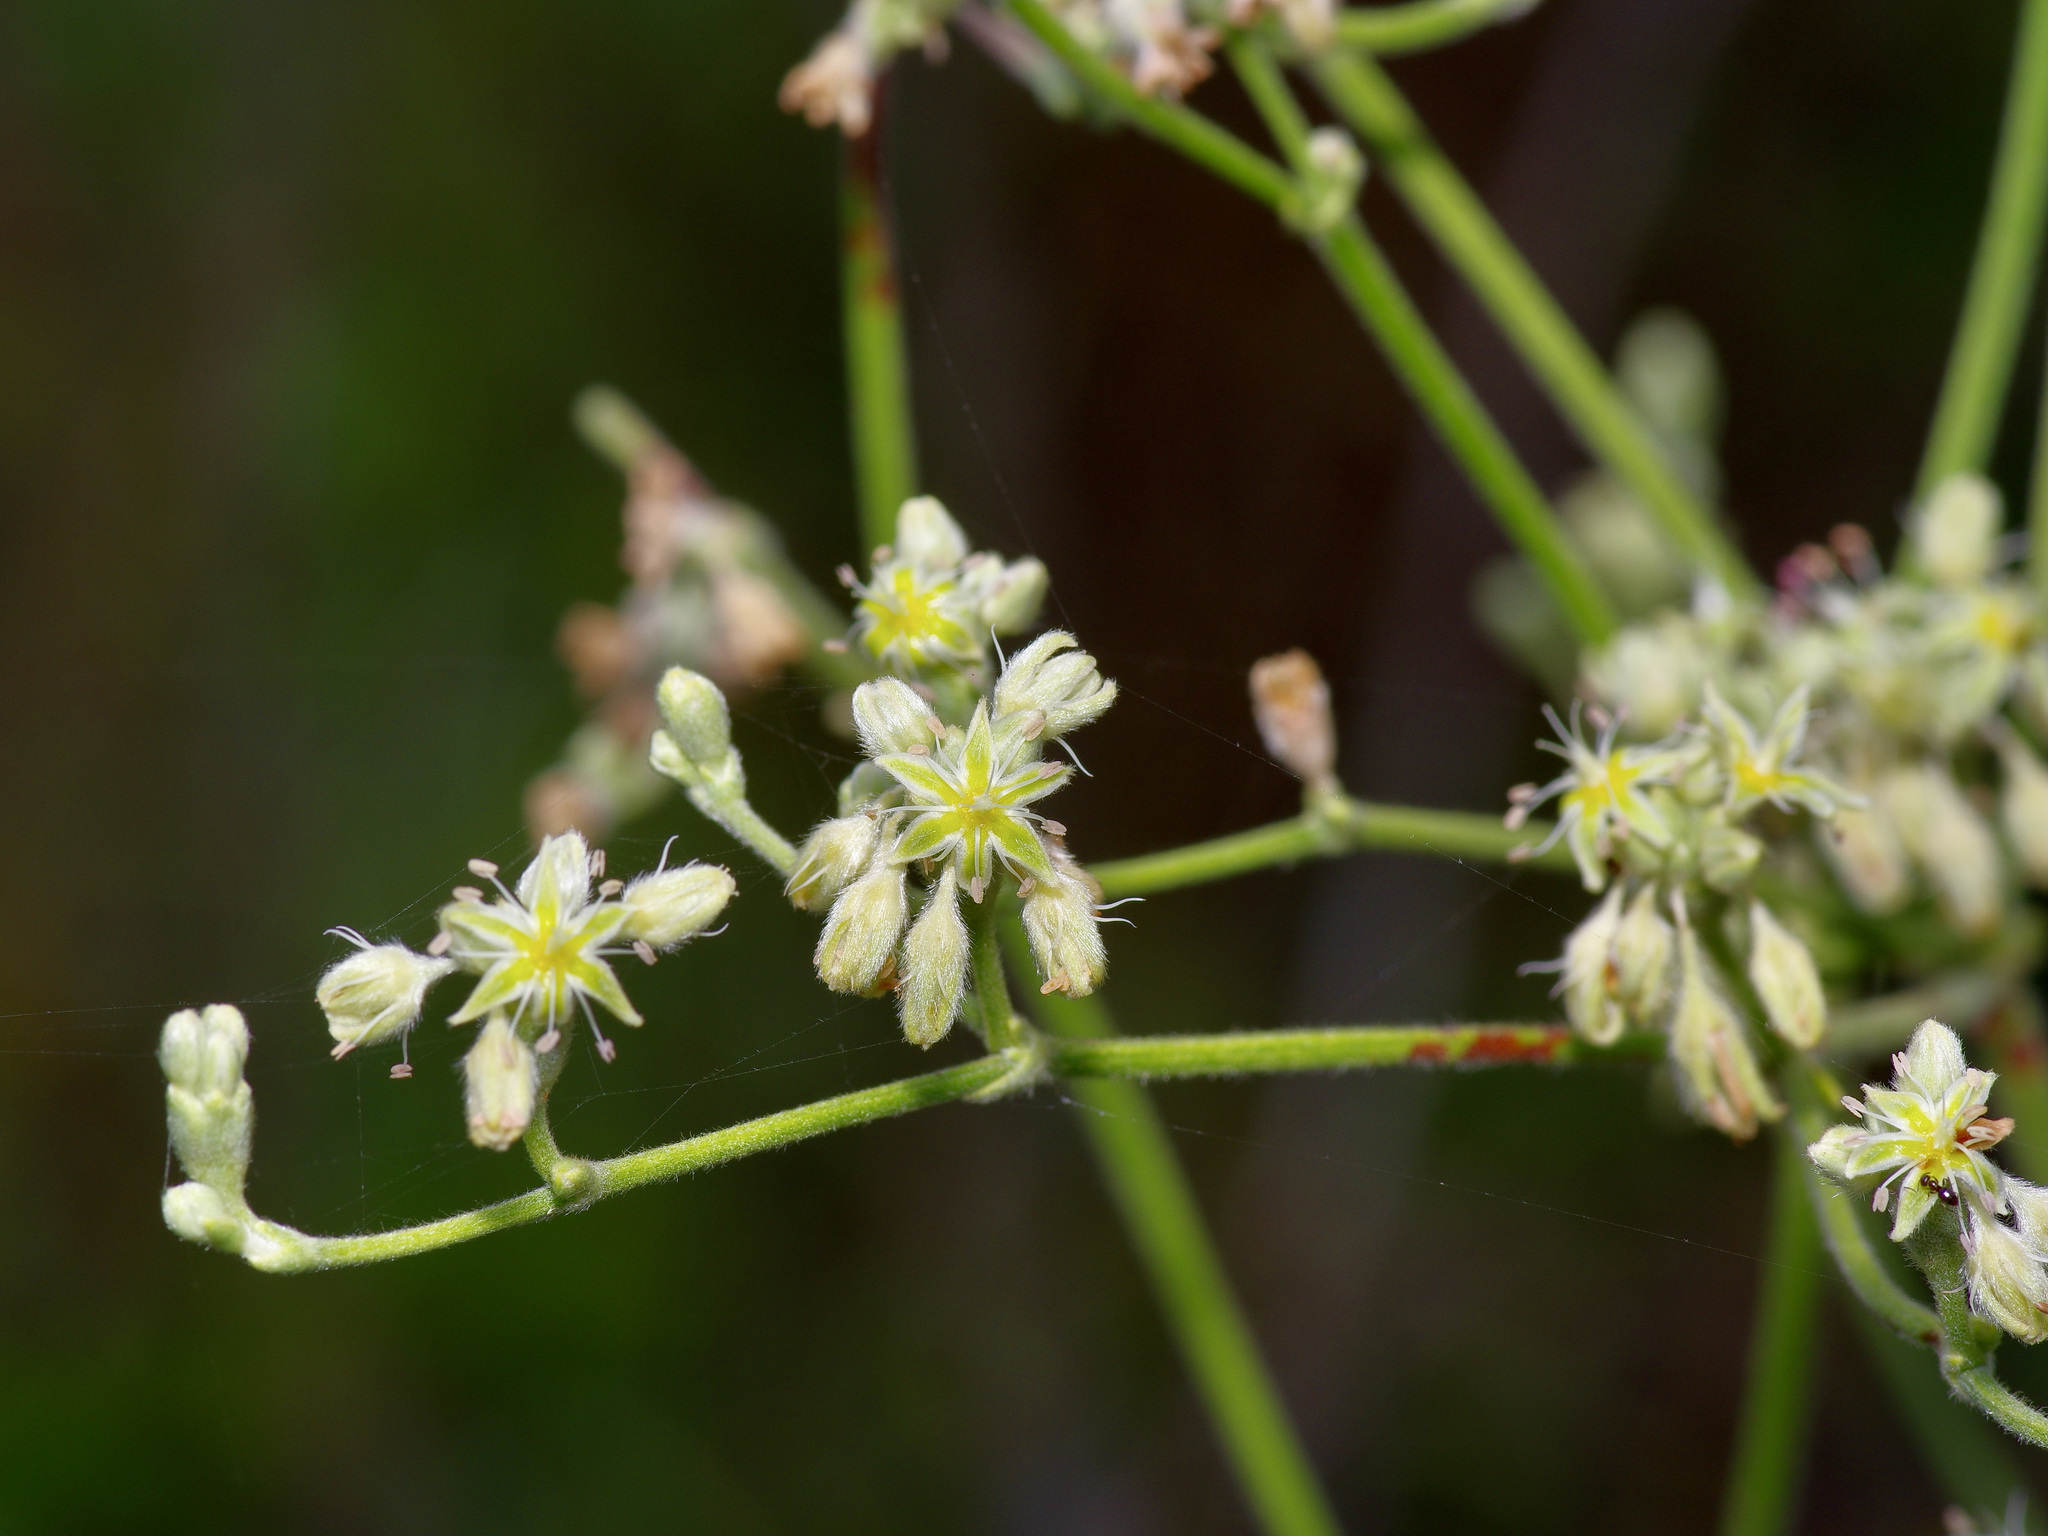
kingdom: Plantae
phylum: Tracheophyta
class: Magnoliopsida
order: Caryophyllales
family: Polygonaceae
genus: Eriogonum
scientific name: Eriogonum longifolium
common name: Longleaf wild buckwheat
